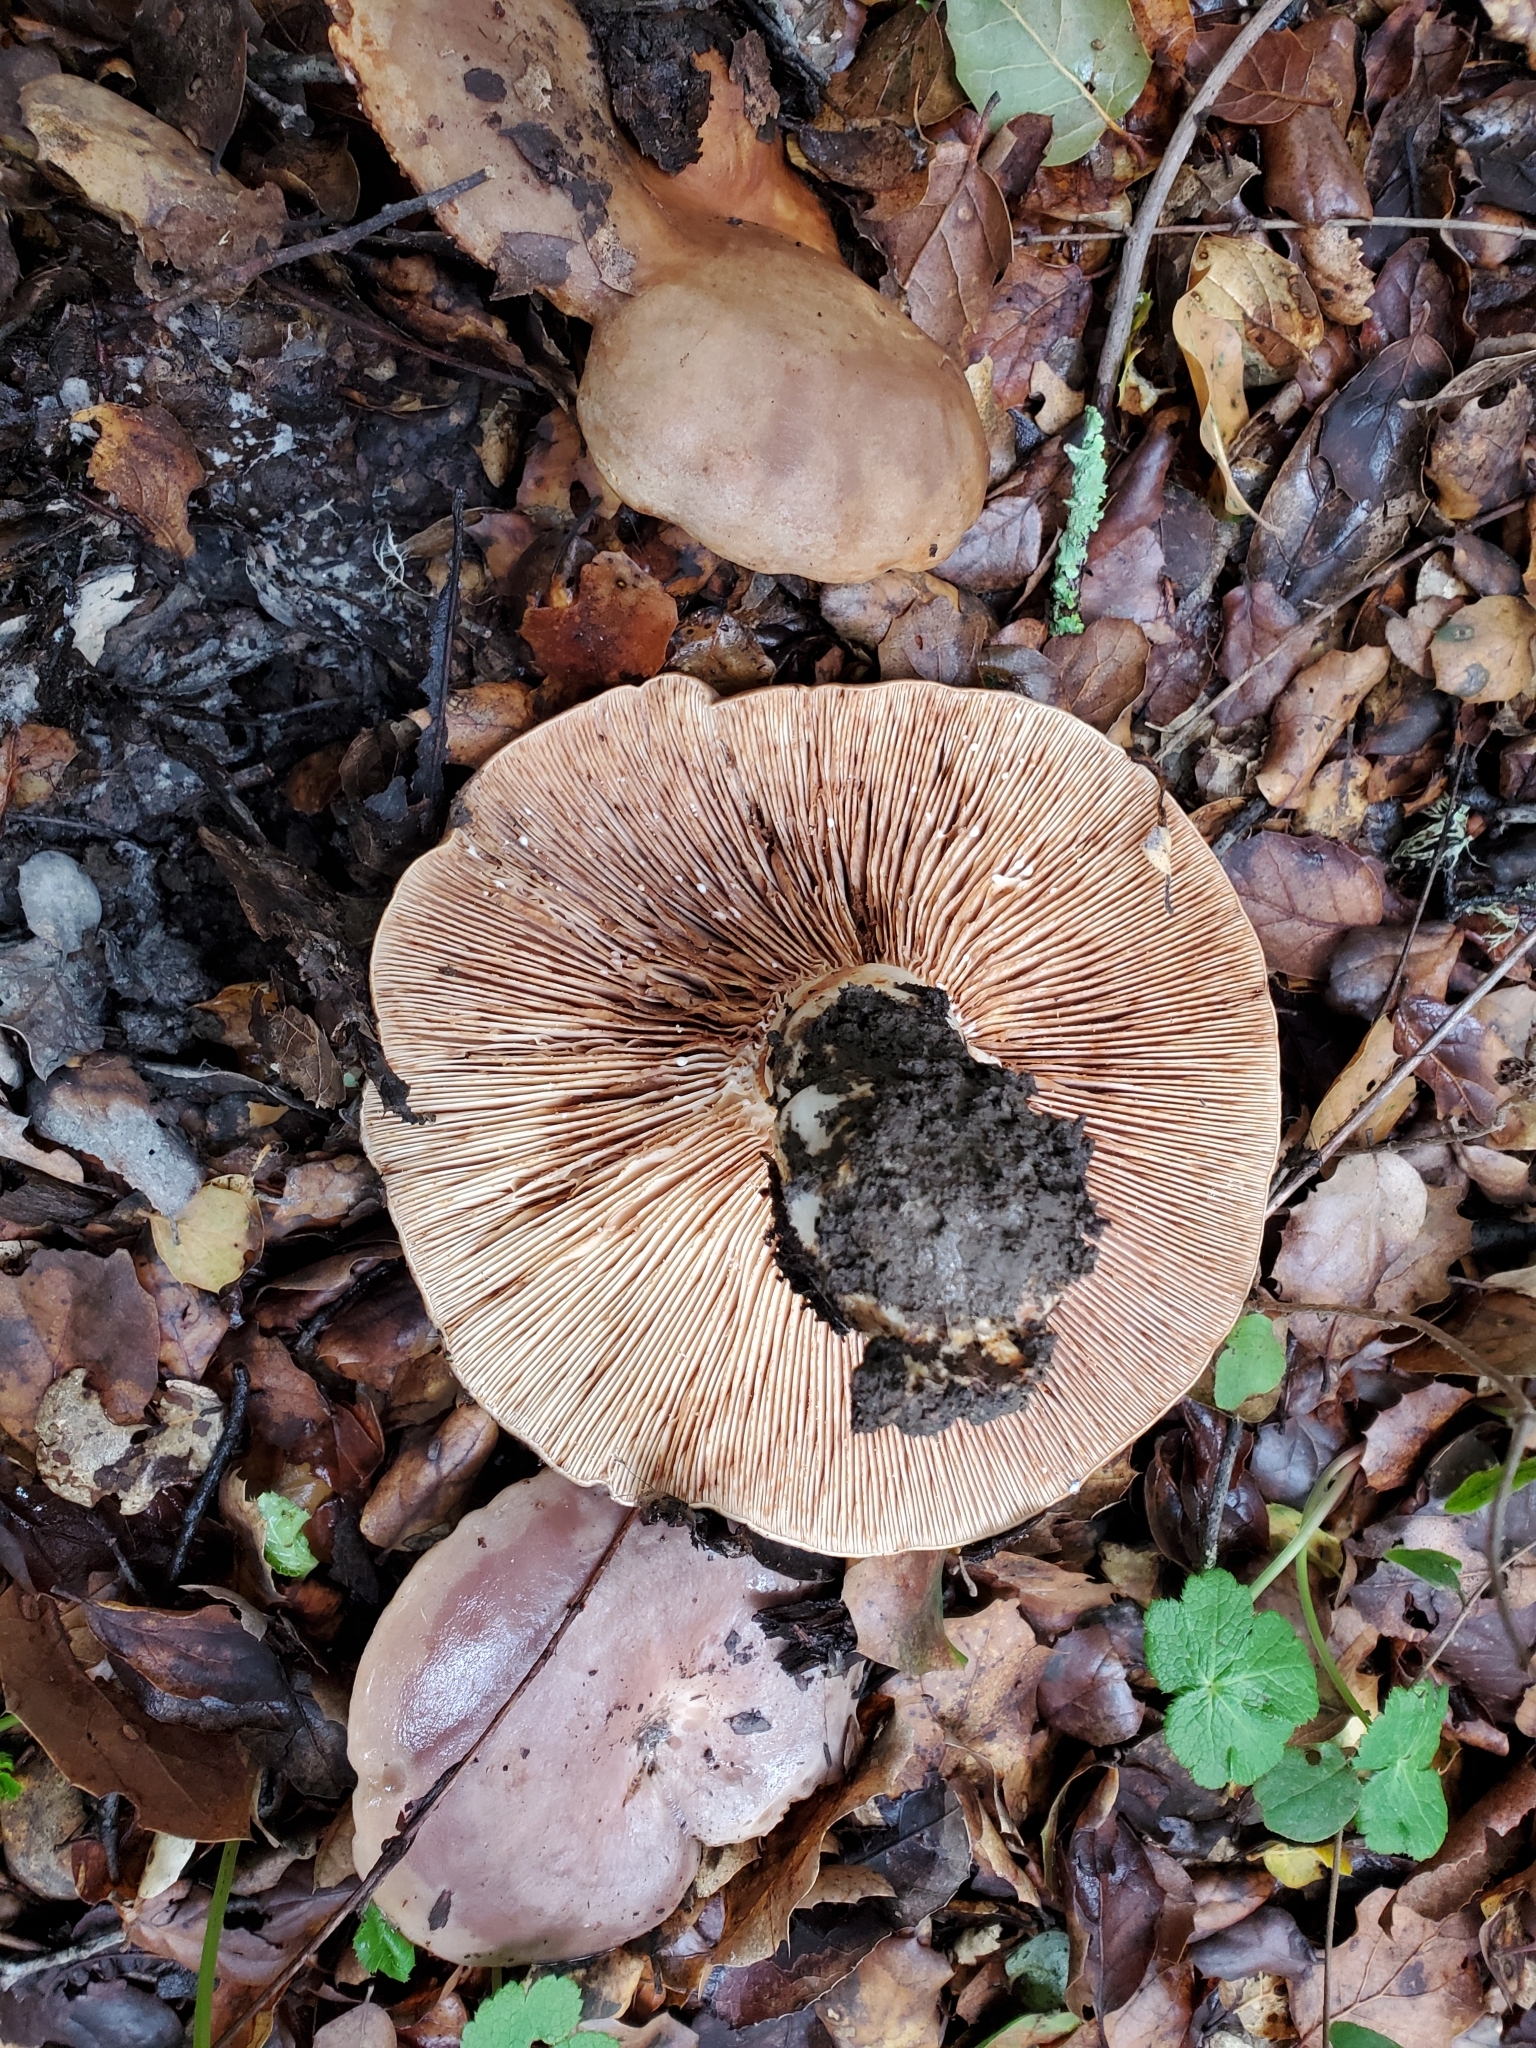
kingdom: Fungi
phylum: Basidiomycota
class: Agaricomycetes
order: Russulales
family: Russulaceae
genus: Lactarius
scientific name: Lactarius argillaceifolius
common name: Clay-gilled milkcap
